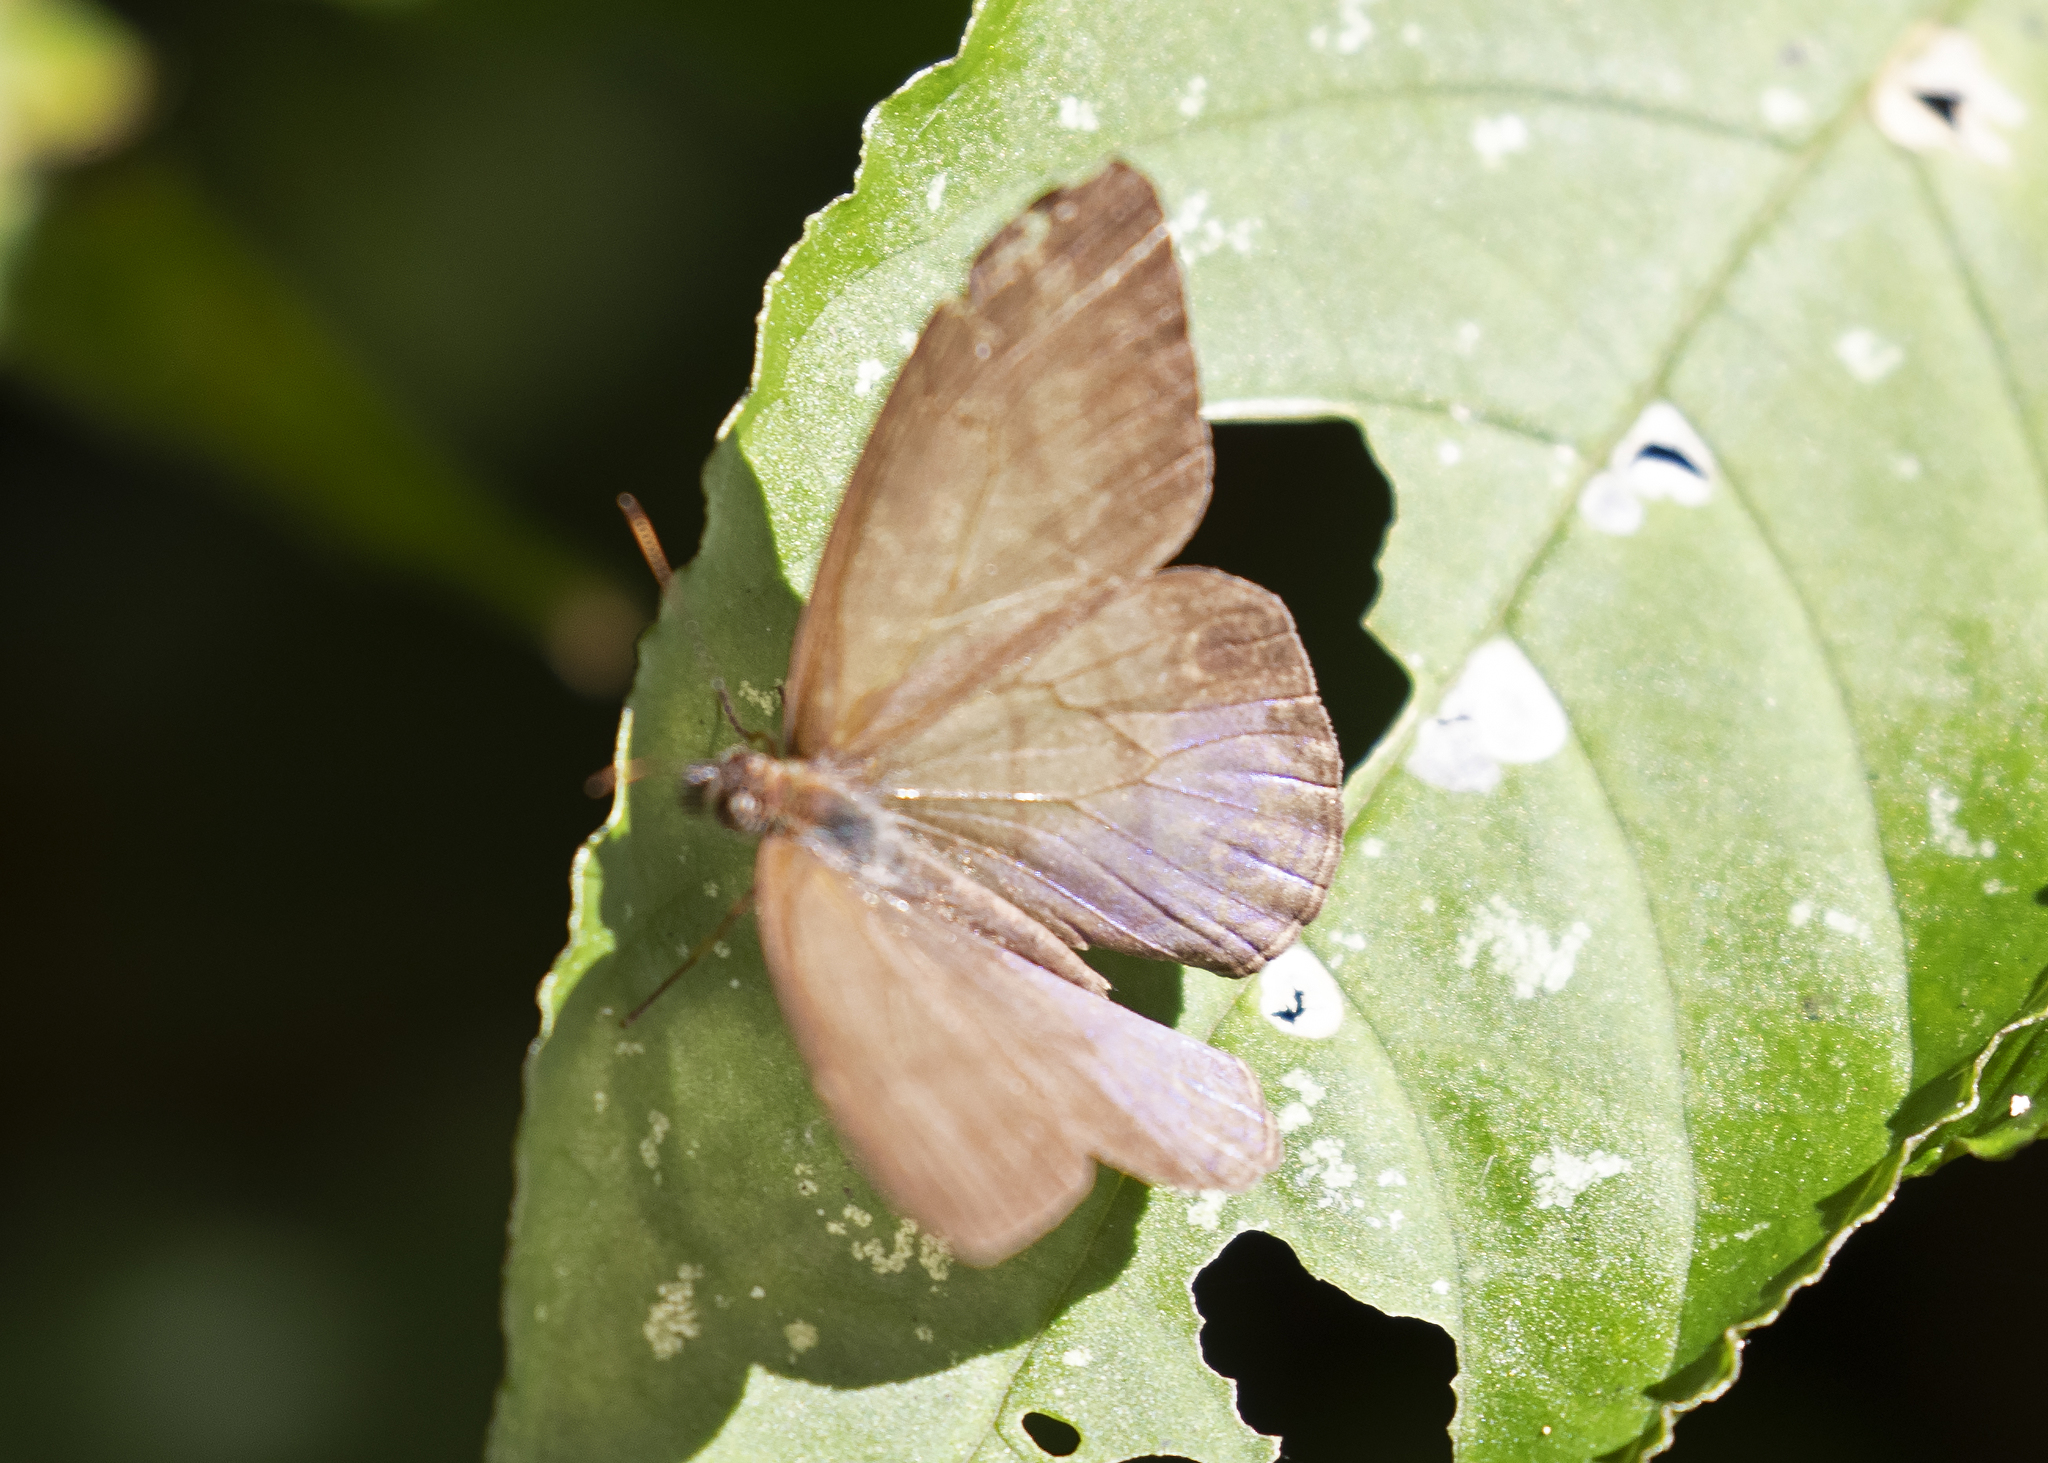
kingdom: Animalia
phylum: Arthropoda
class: Insecta
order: Lepidoptera
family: Nymphalidae
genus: Amiga
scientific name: Amiga arnaca
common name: Blue-topped satyr
